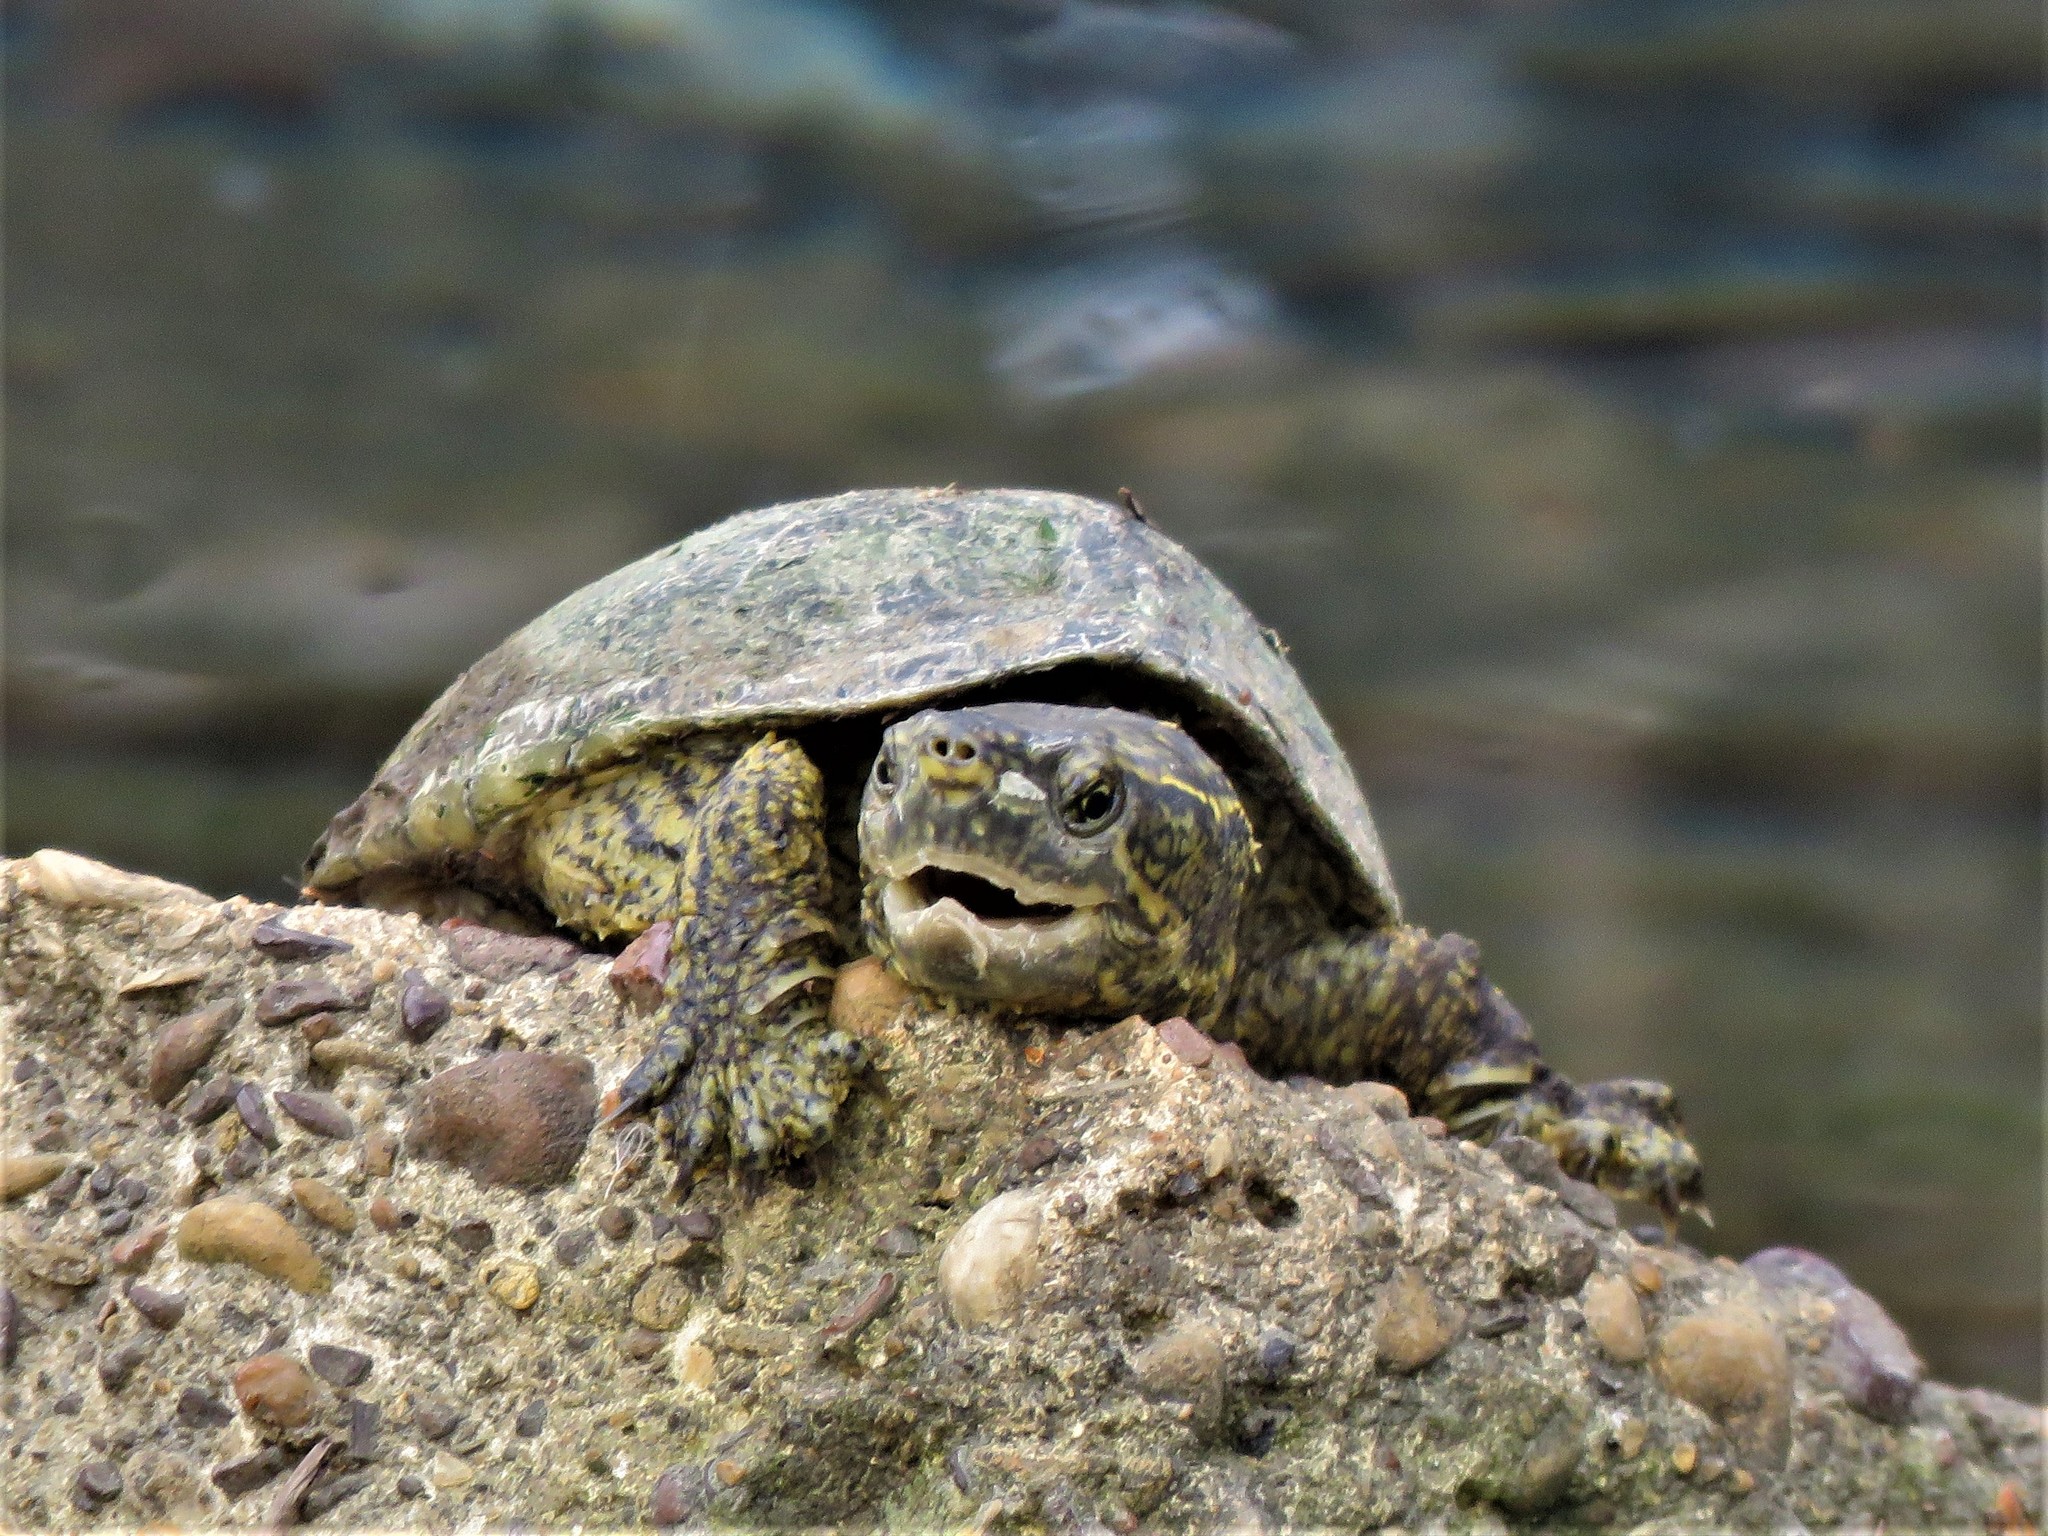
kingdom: Animalia
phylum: Chordata
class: Testudines
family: Kinosternidae
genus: Sternotherus
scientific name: Sternotherus odoratus
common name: Common musk turtle
